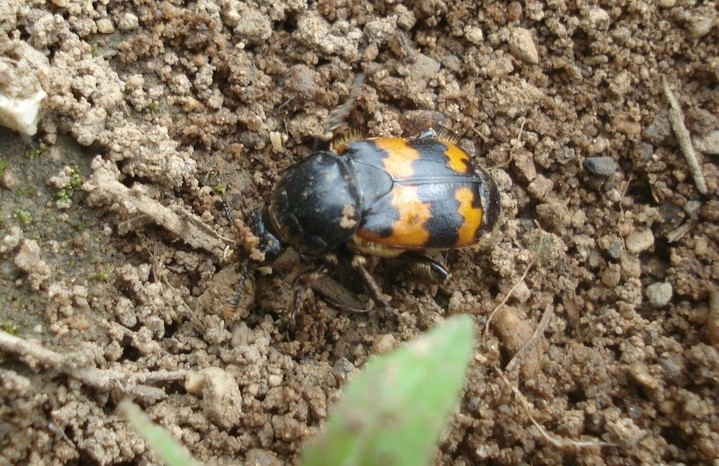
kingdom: Animalia
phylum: Arthropoda
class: Insecta
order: Coleoptera
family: Staphylinidae
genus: Nicrophorus
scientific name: Nicrophorus vespillo
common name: Common burying beetle
